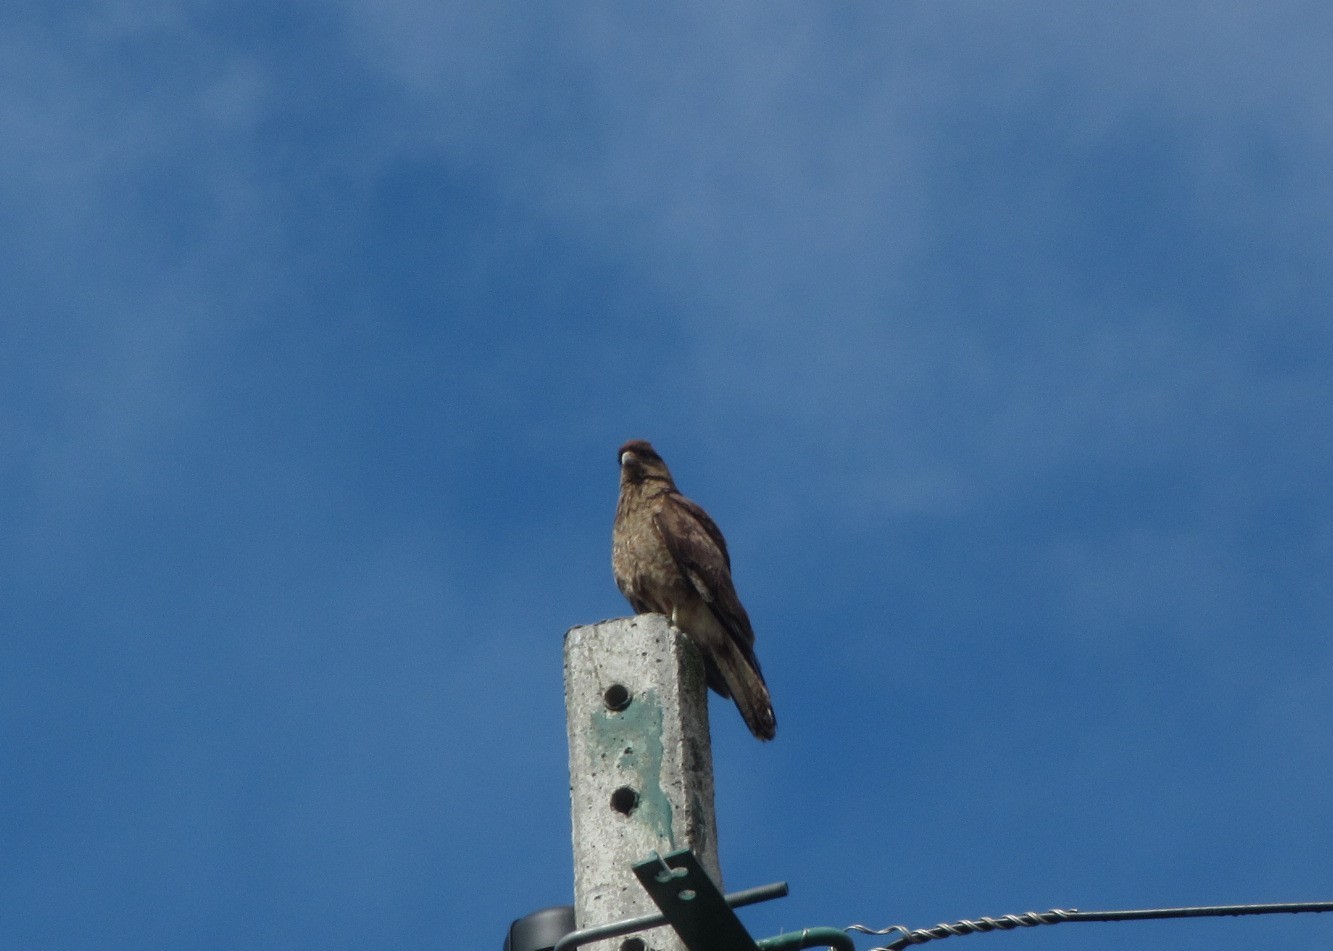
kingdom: Animalia
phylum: Chordata
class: Aves
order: Falconiformes
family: Falconidae
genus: Daptrius
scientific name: Daptrius
